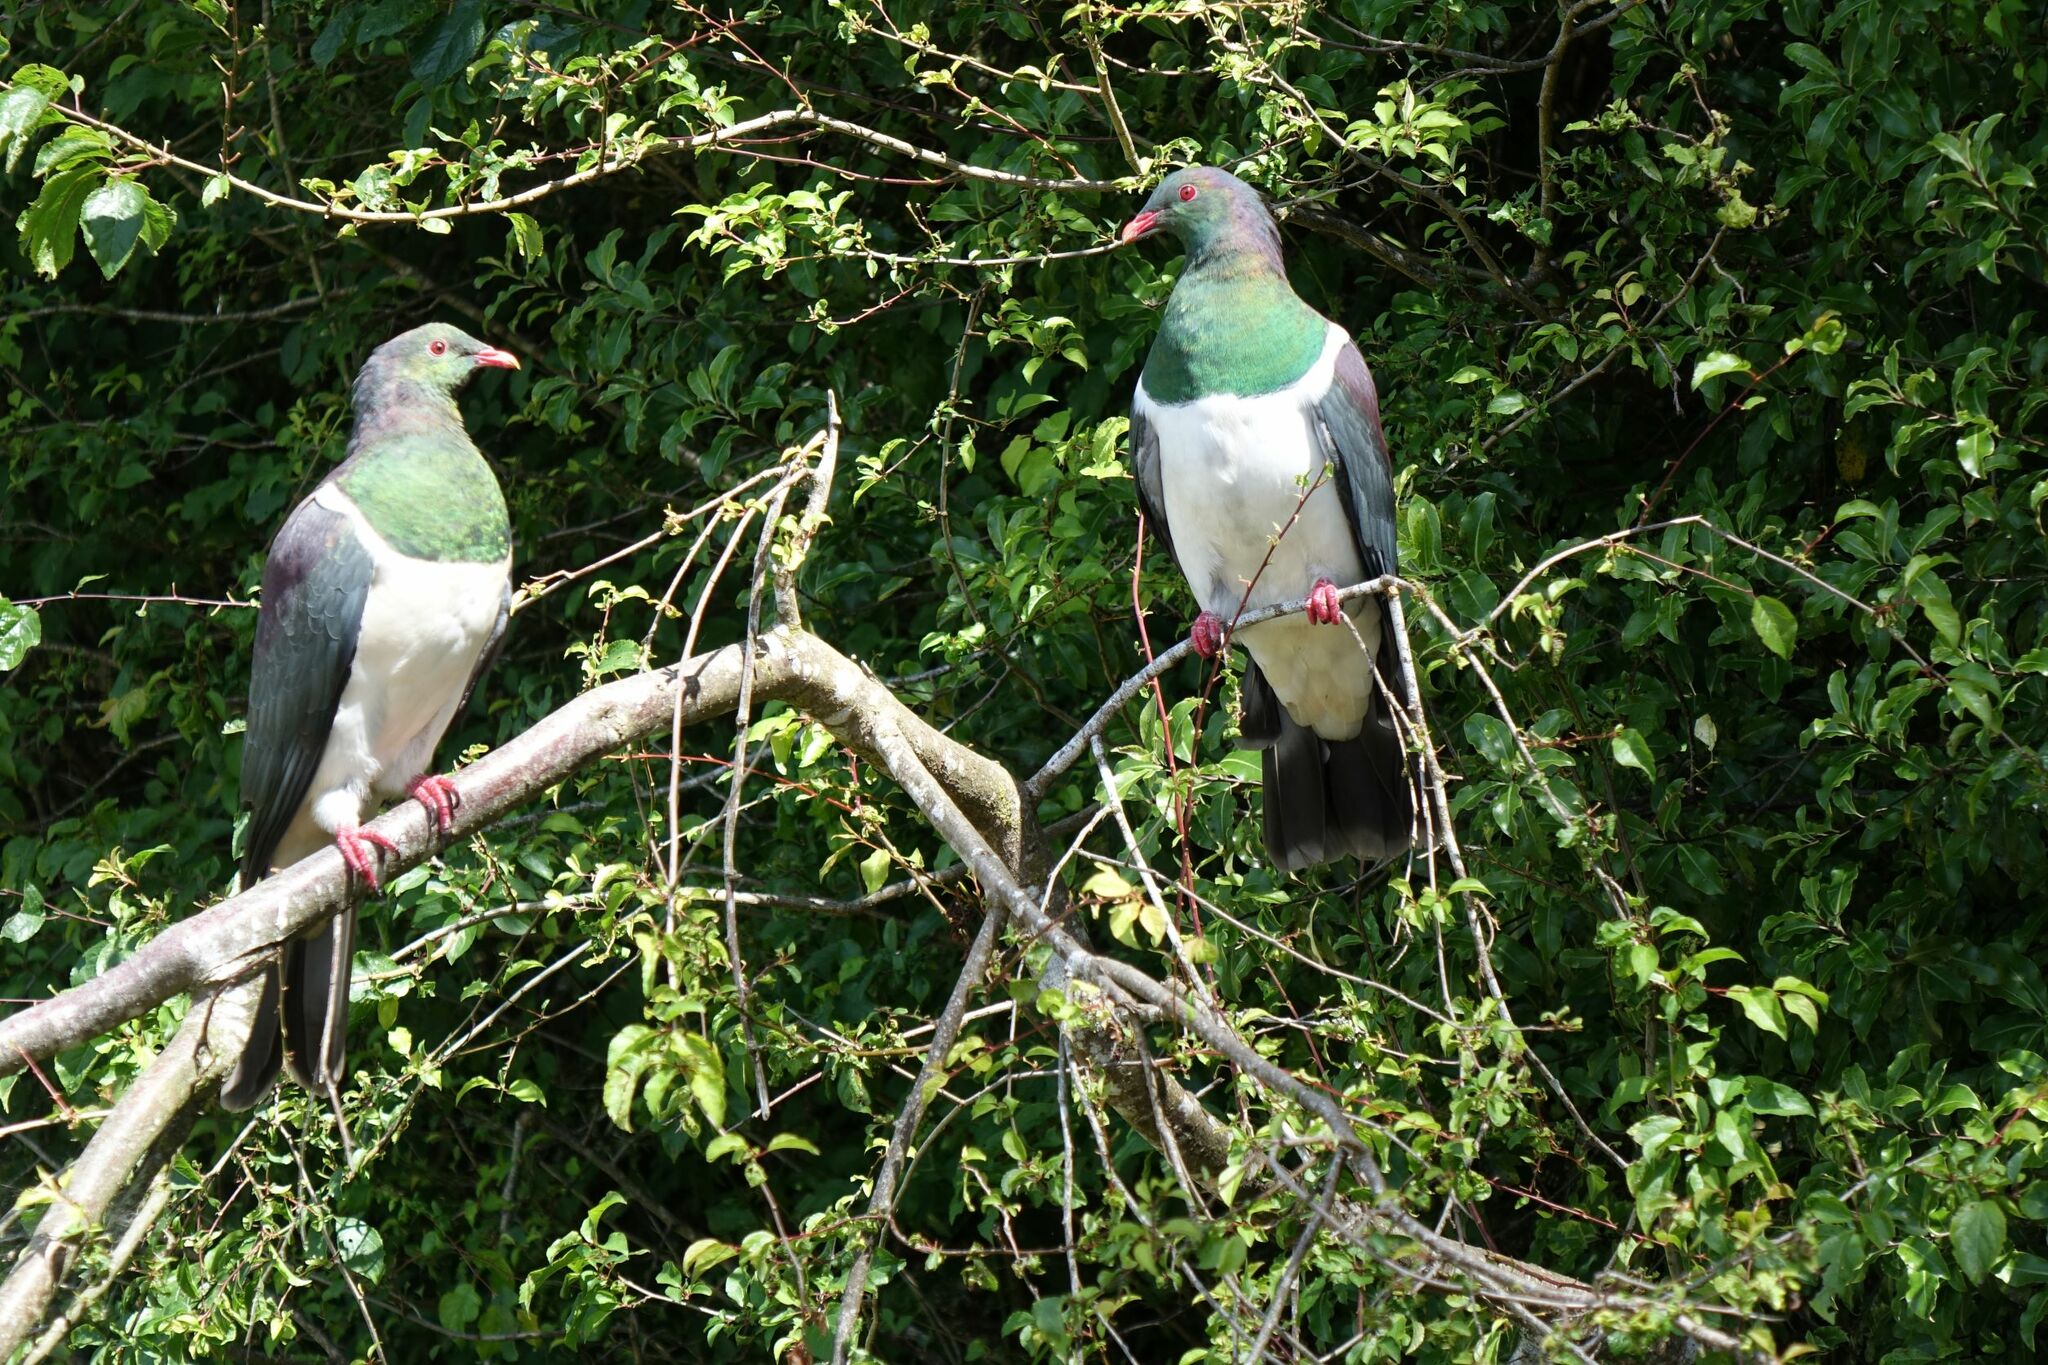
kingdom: Animalia
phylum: Chordata
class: Aves
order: Columbiformes
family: Columbidae
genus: Hemiphaga
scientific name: Hemiphaga novaeseelandiae
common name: New zealand pigeon
